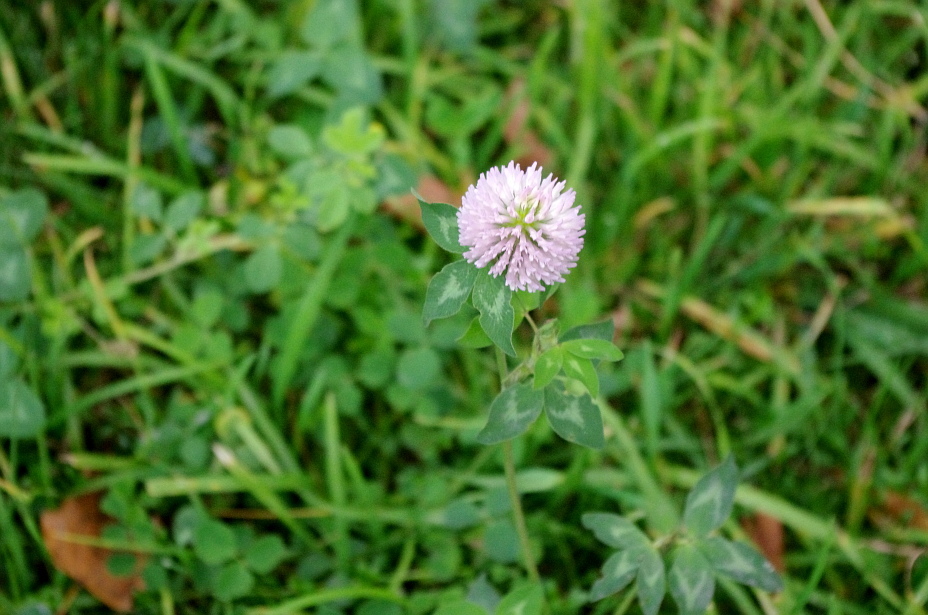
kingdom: Plantae
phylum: Tracheophyta
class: Magnoliopsida
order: Fabales
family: Fabaceae
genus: Trifolium
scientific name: Trifolium pratense
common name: Red clover
